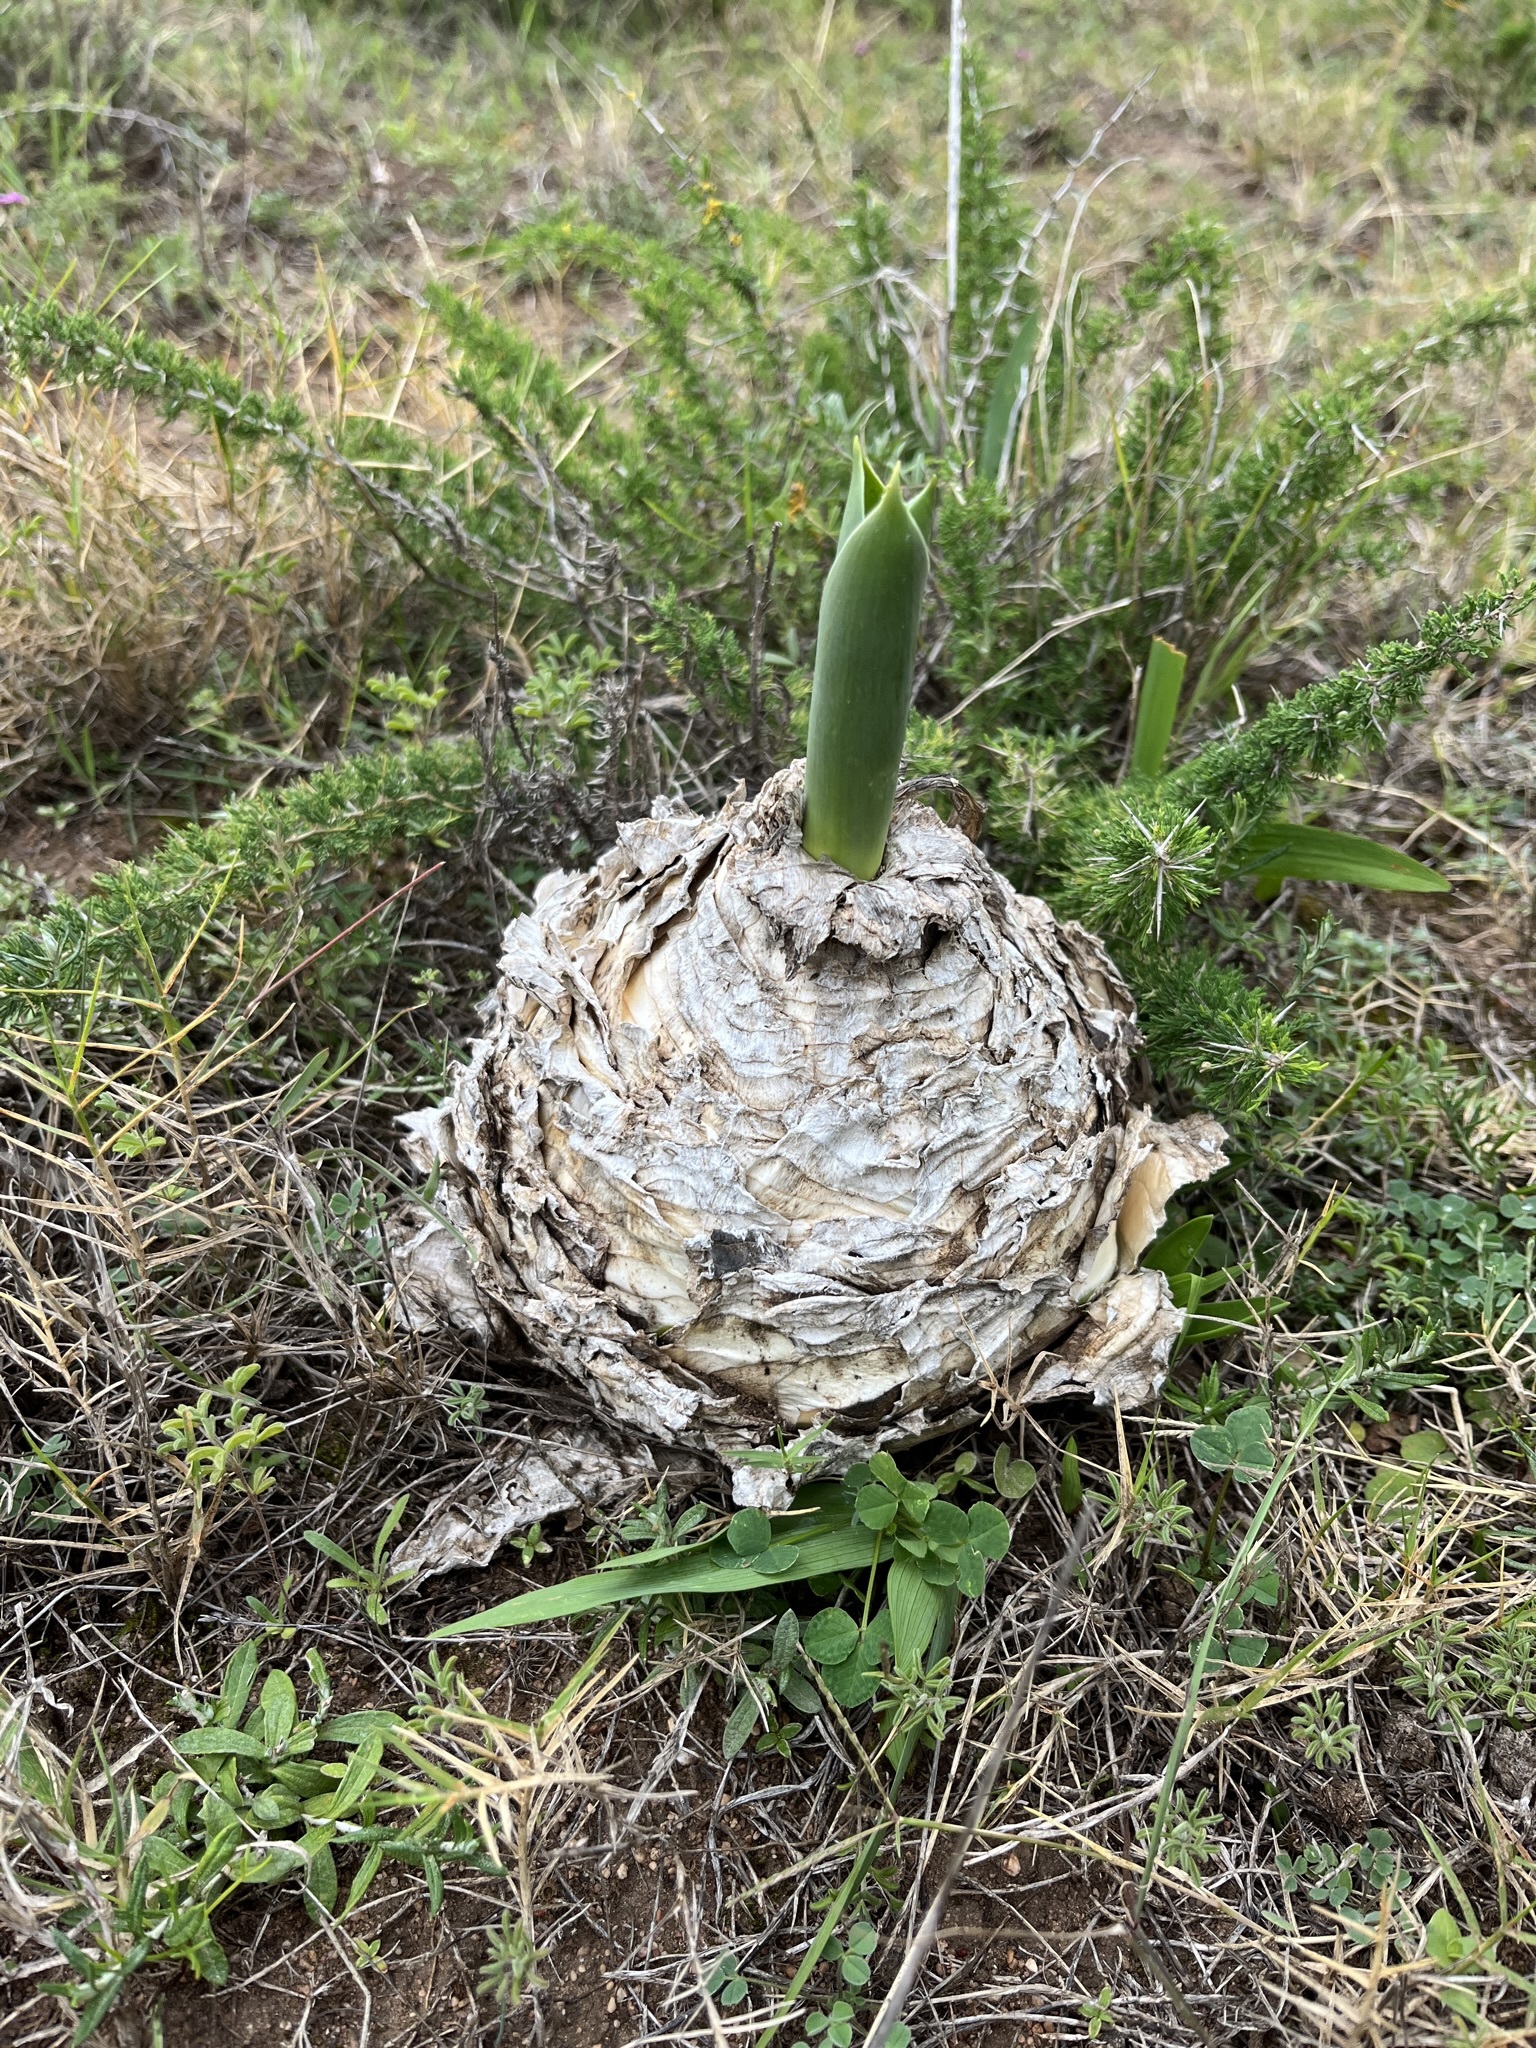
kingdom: Plantae
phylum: Tracheophyta
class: Liliopsida
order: Asparagales
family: Asparagaceae
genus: Drimia
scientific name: Drimia capensis
